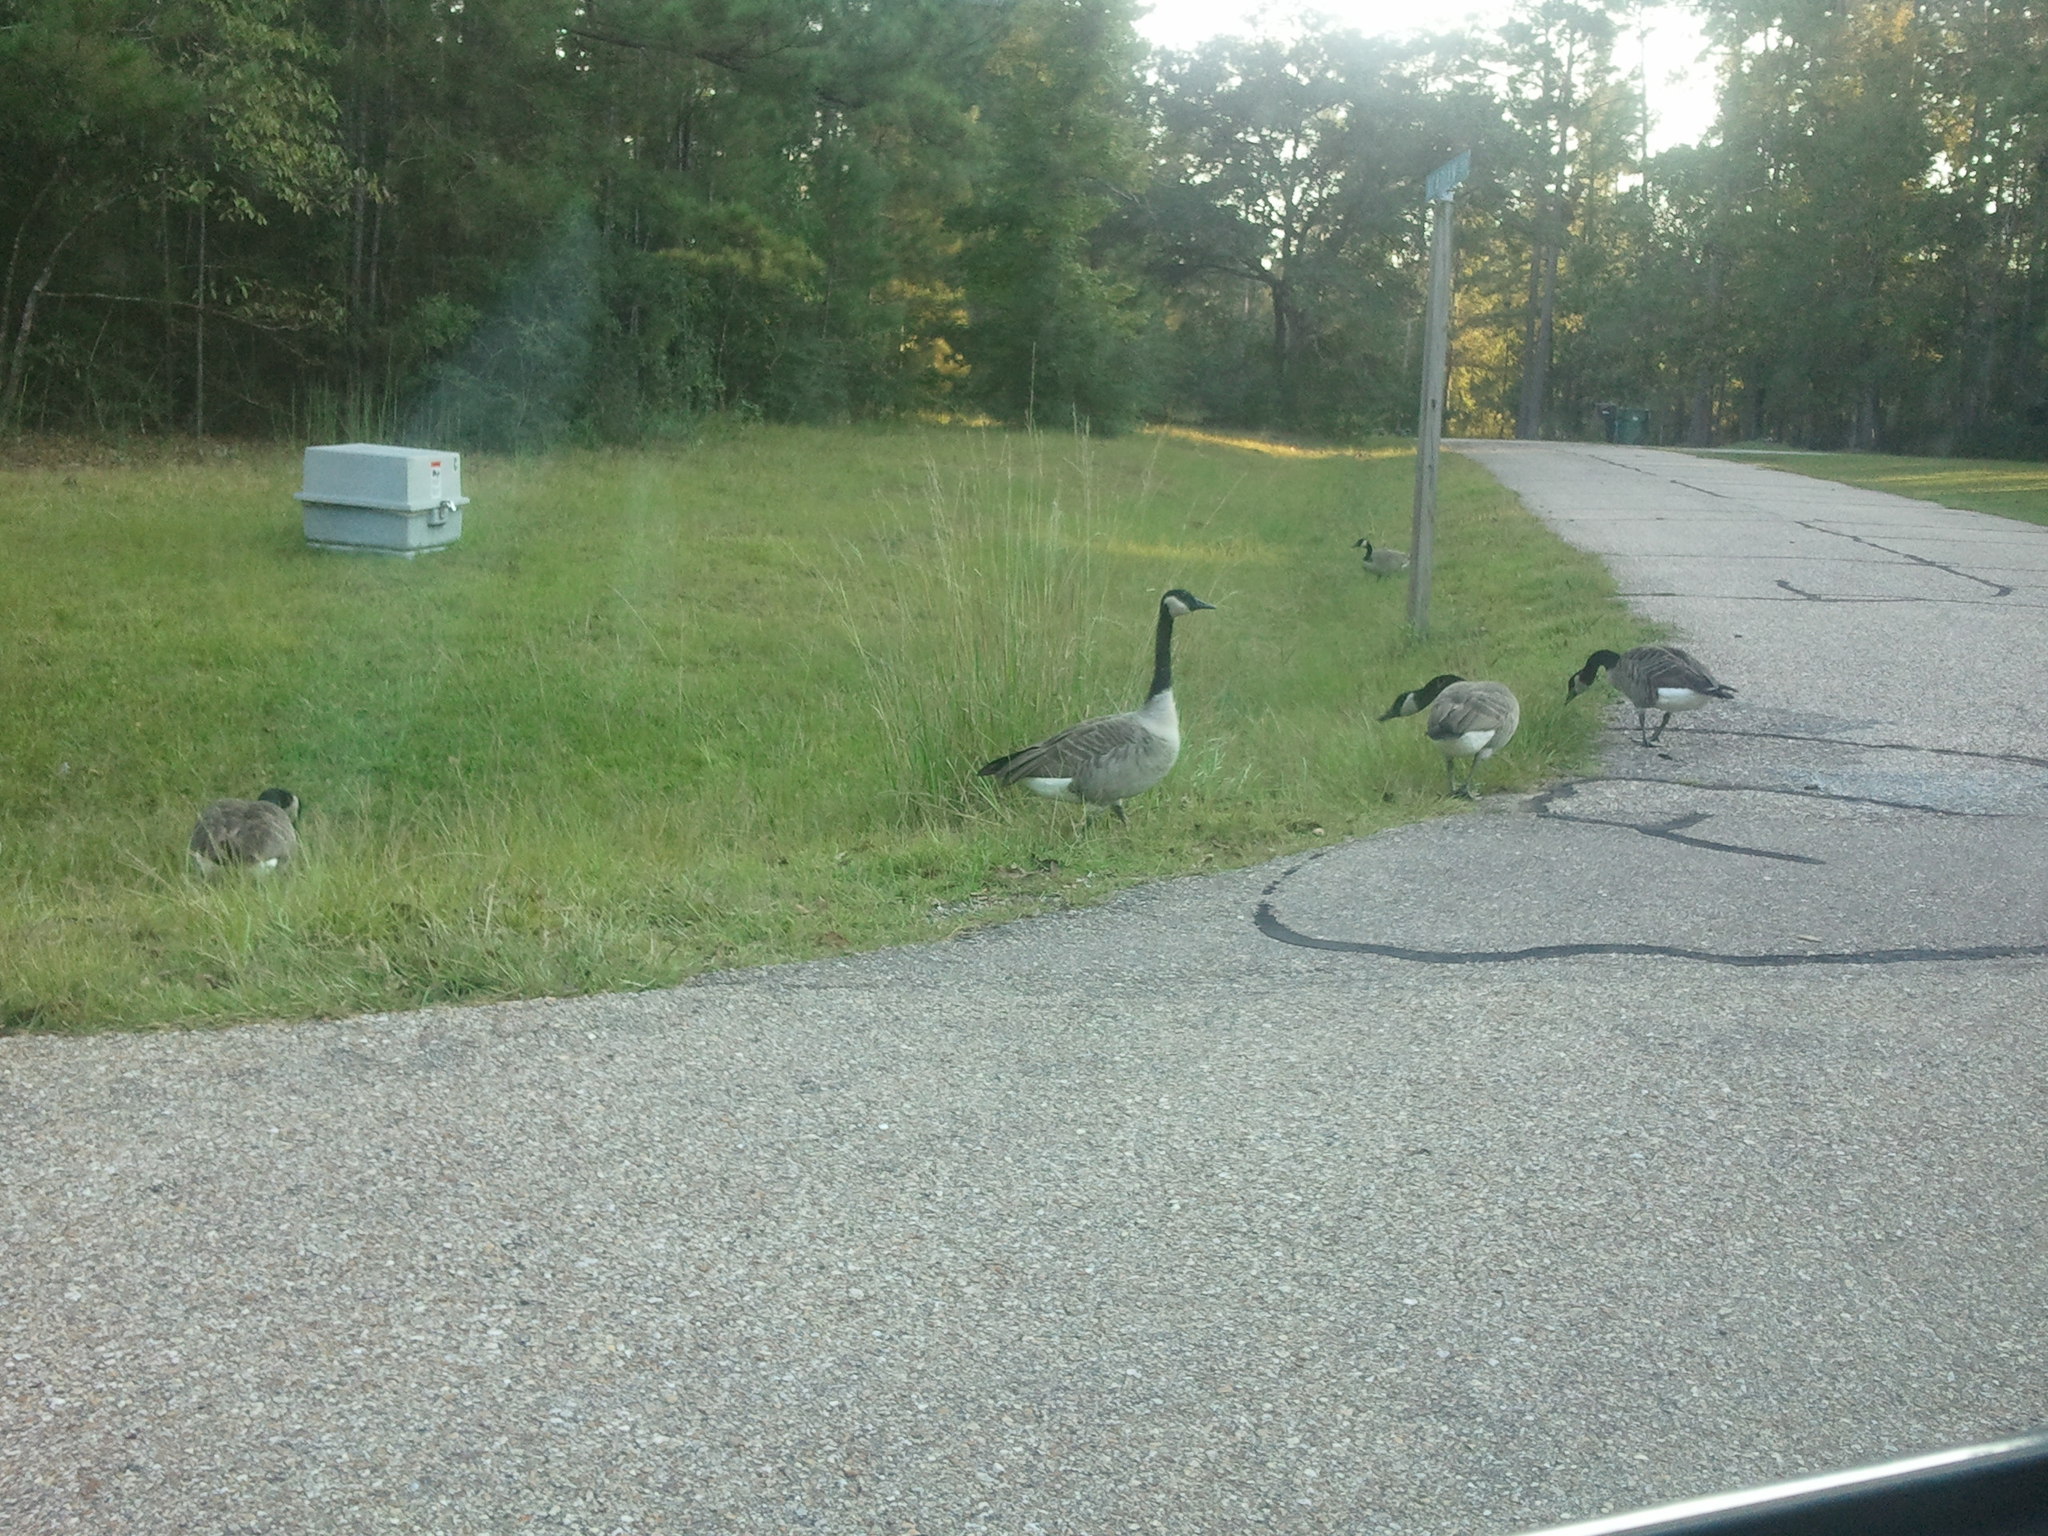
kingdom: Animalia
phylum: Chordata
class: Aves
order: Anseriformes
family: Anatidae
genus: Branta
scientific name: Branta canadensis
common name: Canada goose
